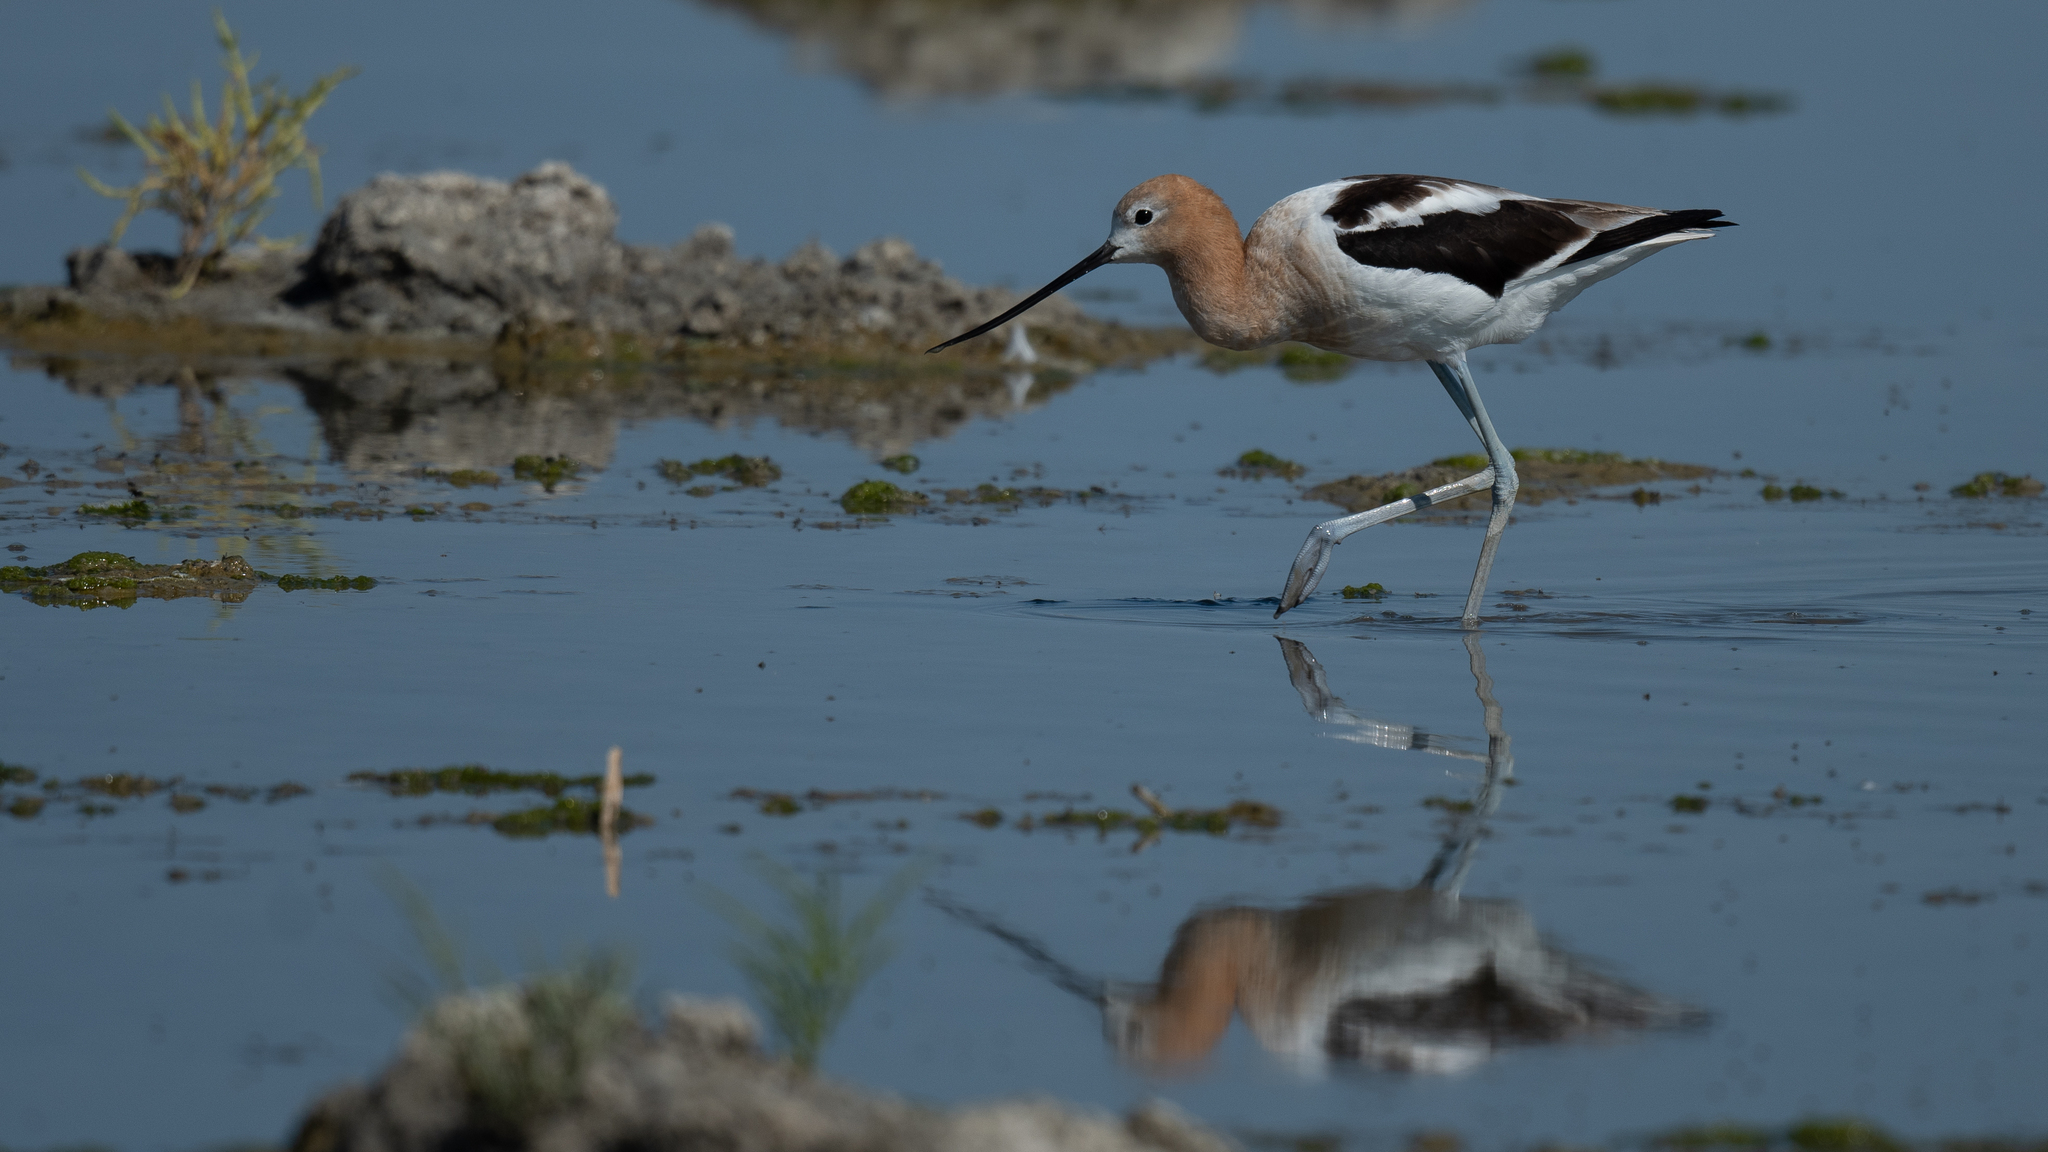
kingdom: Animalia
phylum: Chordata
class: Aves
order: Charadriiformes
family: Recurvirostridae
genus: Recurvirostra
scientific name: Recurvirostra americana
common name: American avocet
